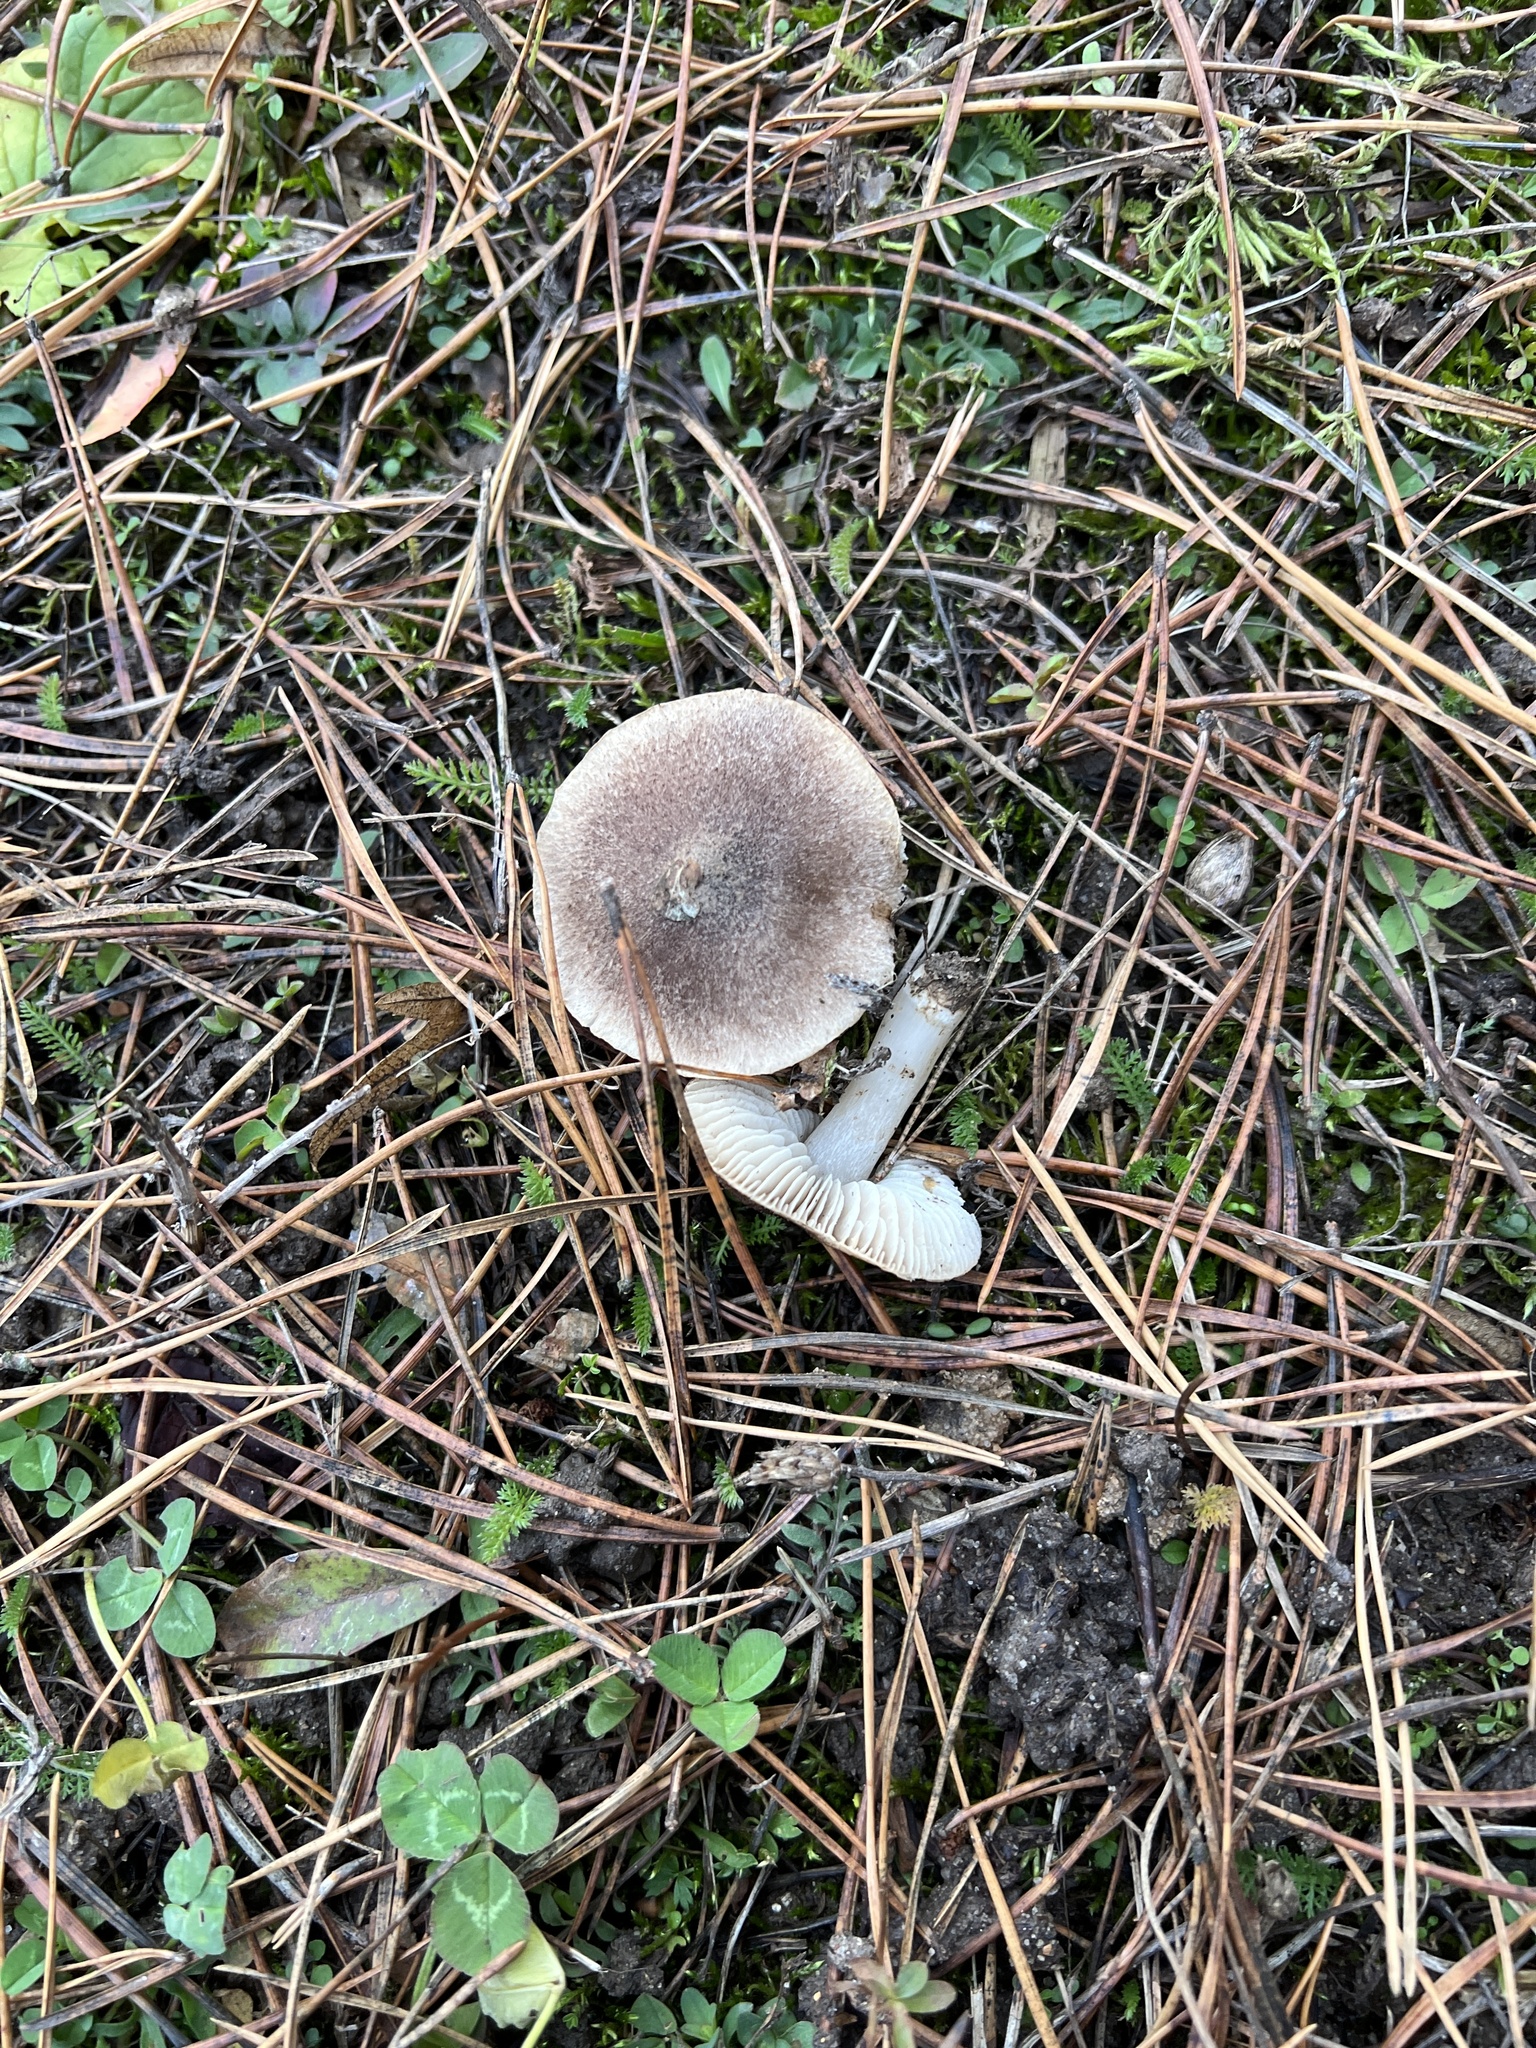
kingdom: Fungi
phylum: Basidiomycota
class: Agaricomycetes
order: Agaricales
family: Tricholomataceae
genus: Tricholoma
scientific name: Tricholoma terreum
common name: Grey knight
